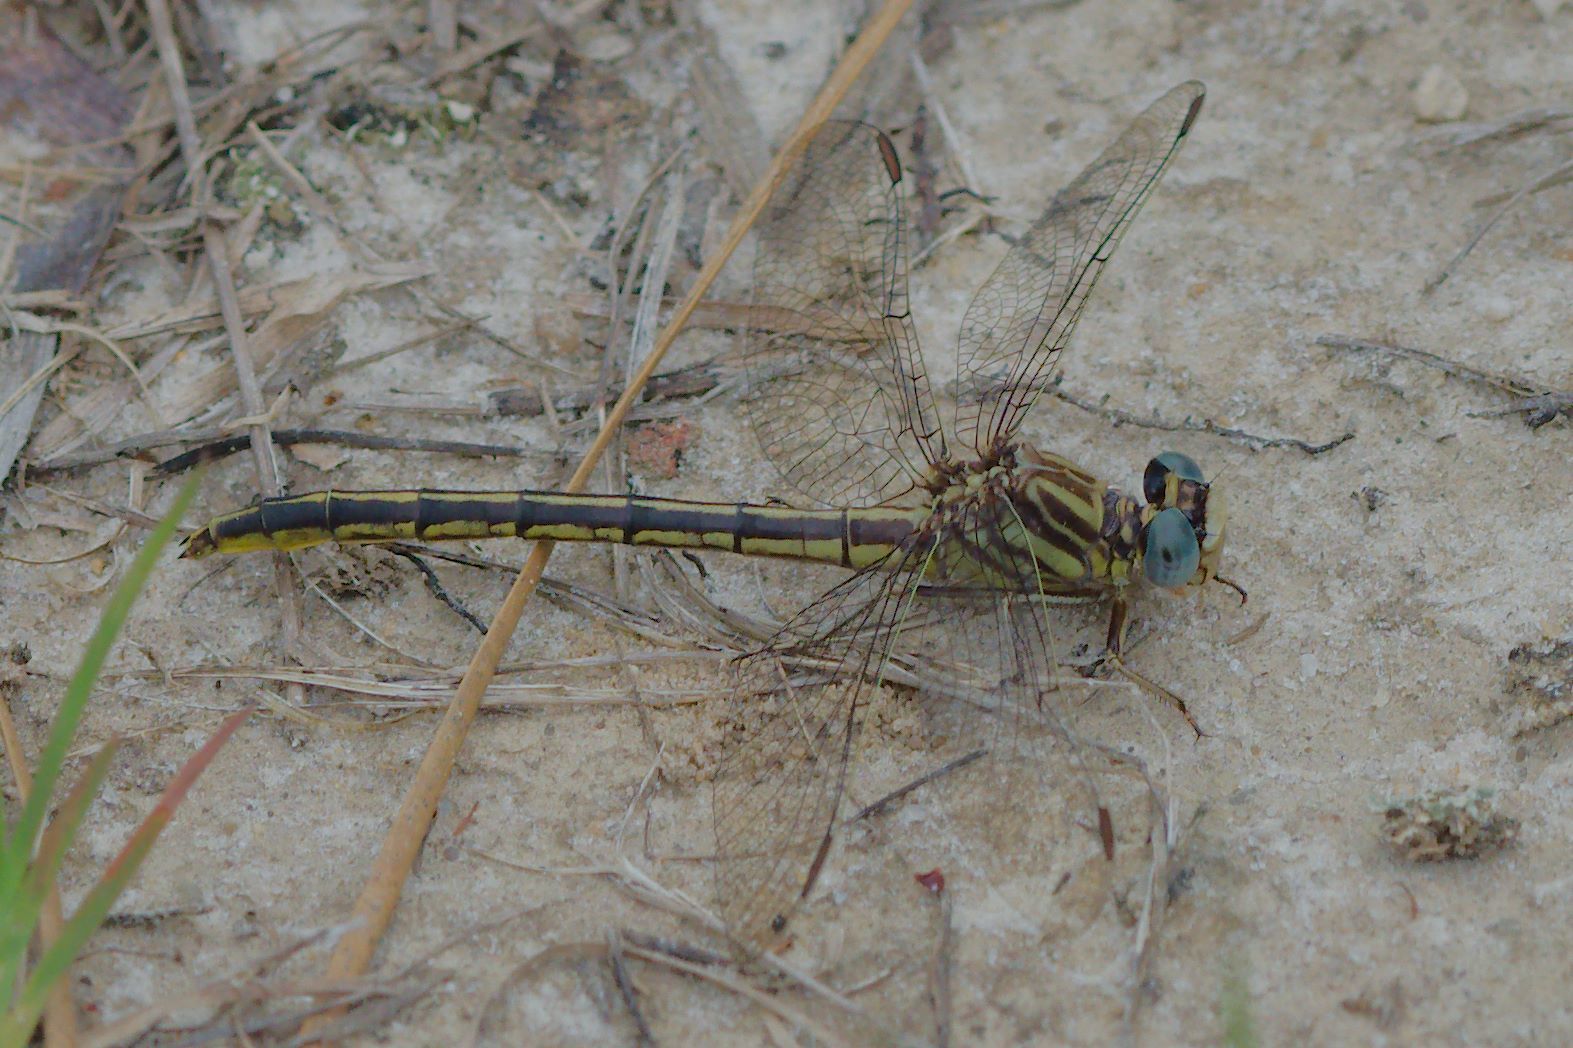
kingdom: Animalia
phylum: Arthropoda
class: Insecta
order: Odonata
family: Gomphidae
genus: Phanogomphus
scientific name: Phanogomphus hodgesi
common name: Hodges' clubtail
